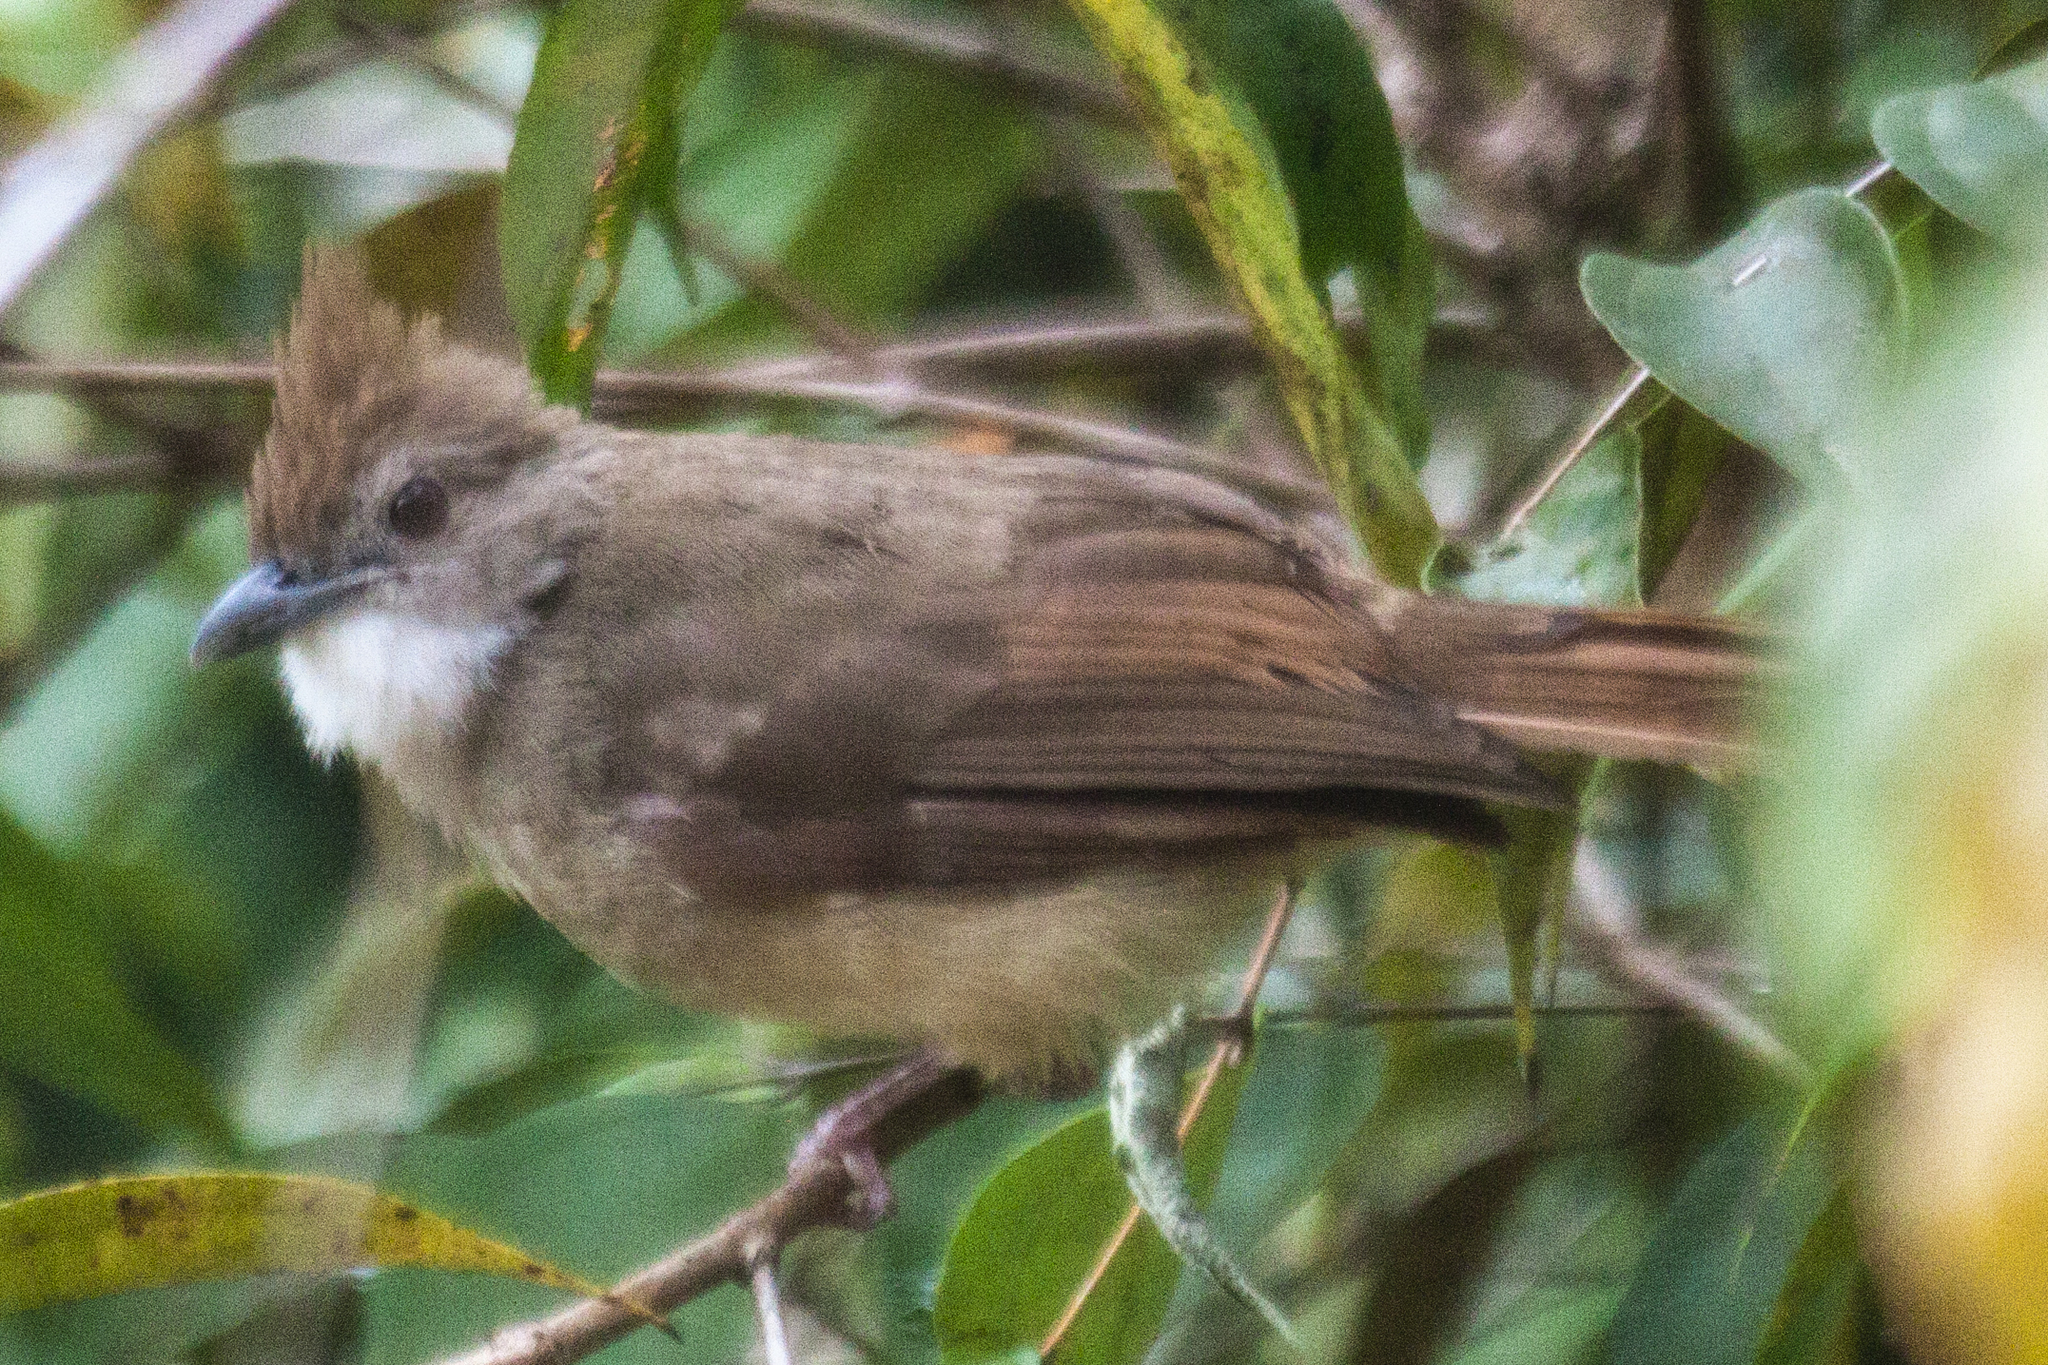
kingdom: Animalia
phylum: Chordata
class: Aves
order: Passeriformes
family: Pycnonotidae
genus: Alophoixus
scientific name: Alophoixus ochraceus
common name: Ochraceous bulbul
